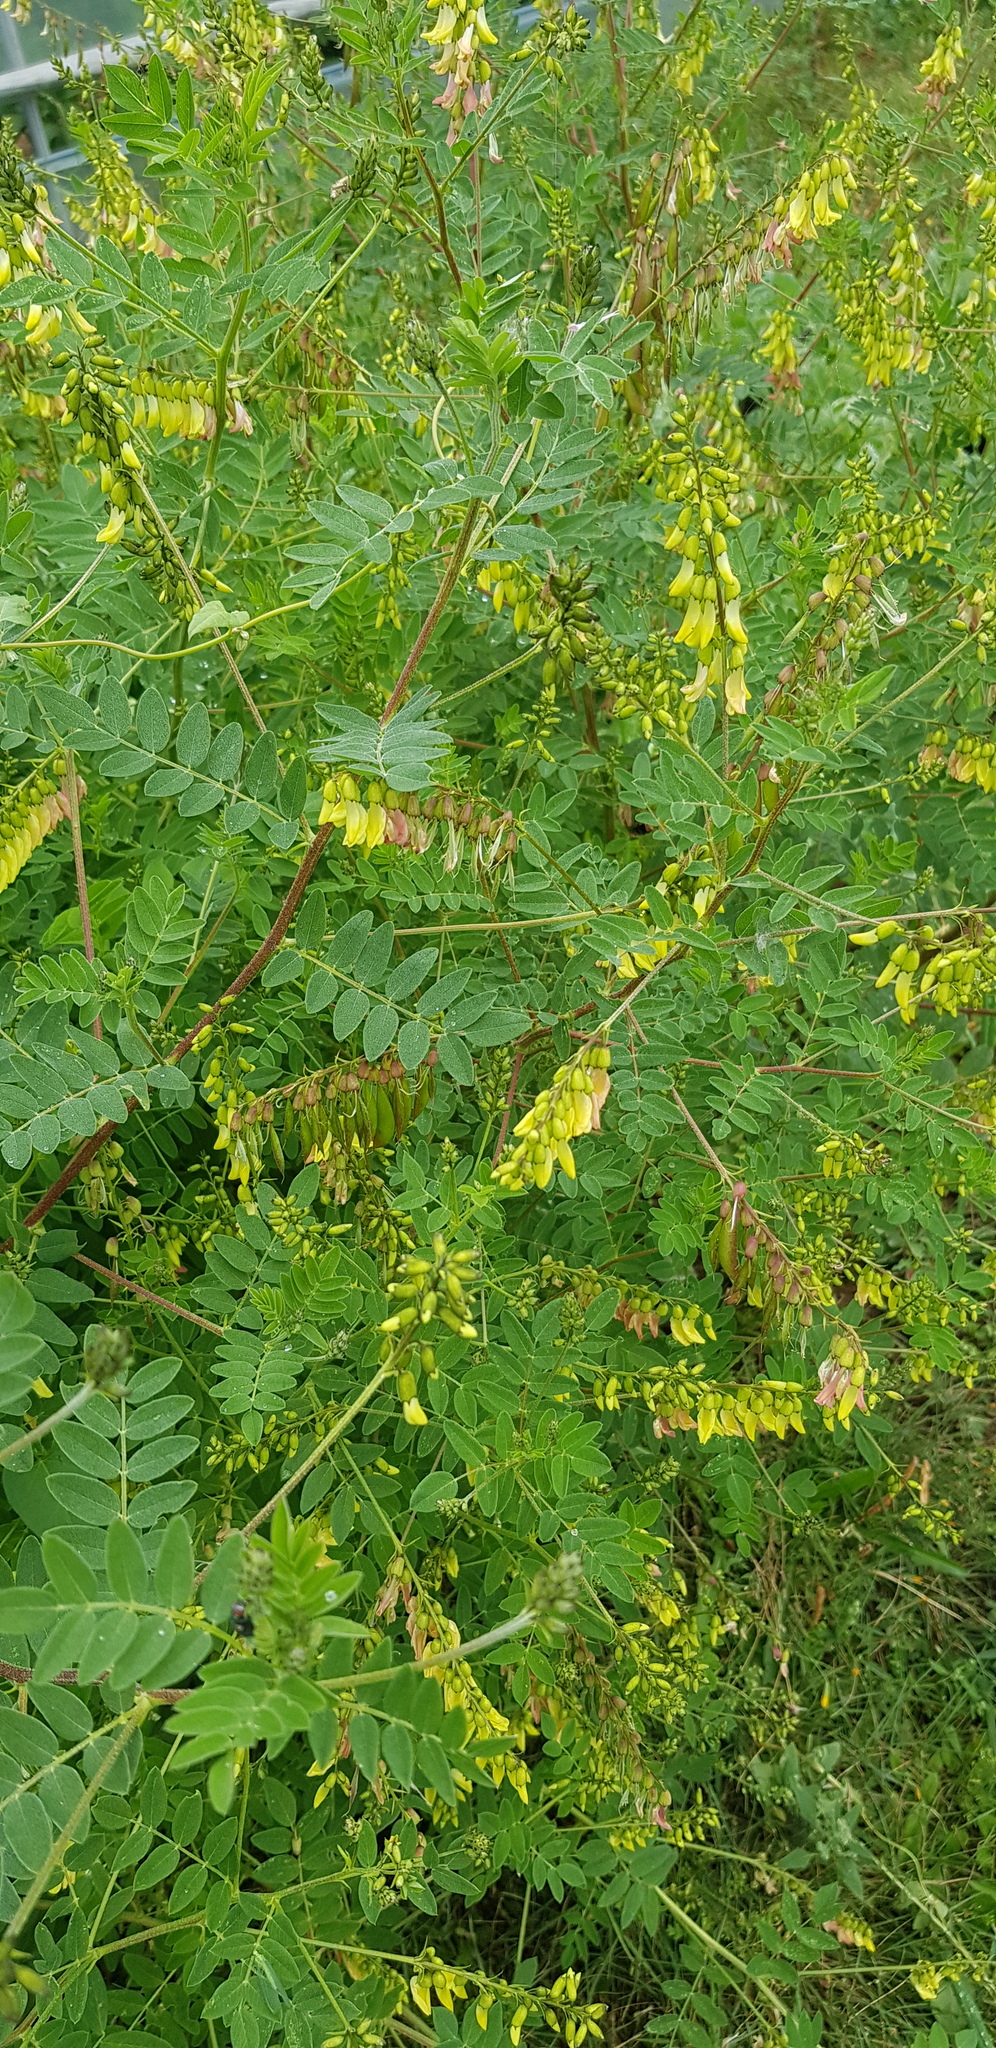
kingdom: Plantae
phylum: Tracheophyta
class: Magnoliopsida
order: Fabales
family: Fabaceae
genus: Astragalus
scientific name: Astragalus mongholicus
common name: Membranous milk-vetch
